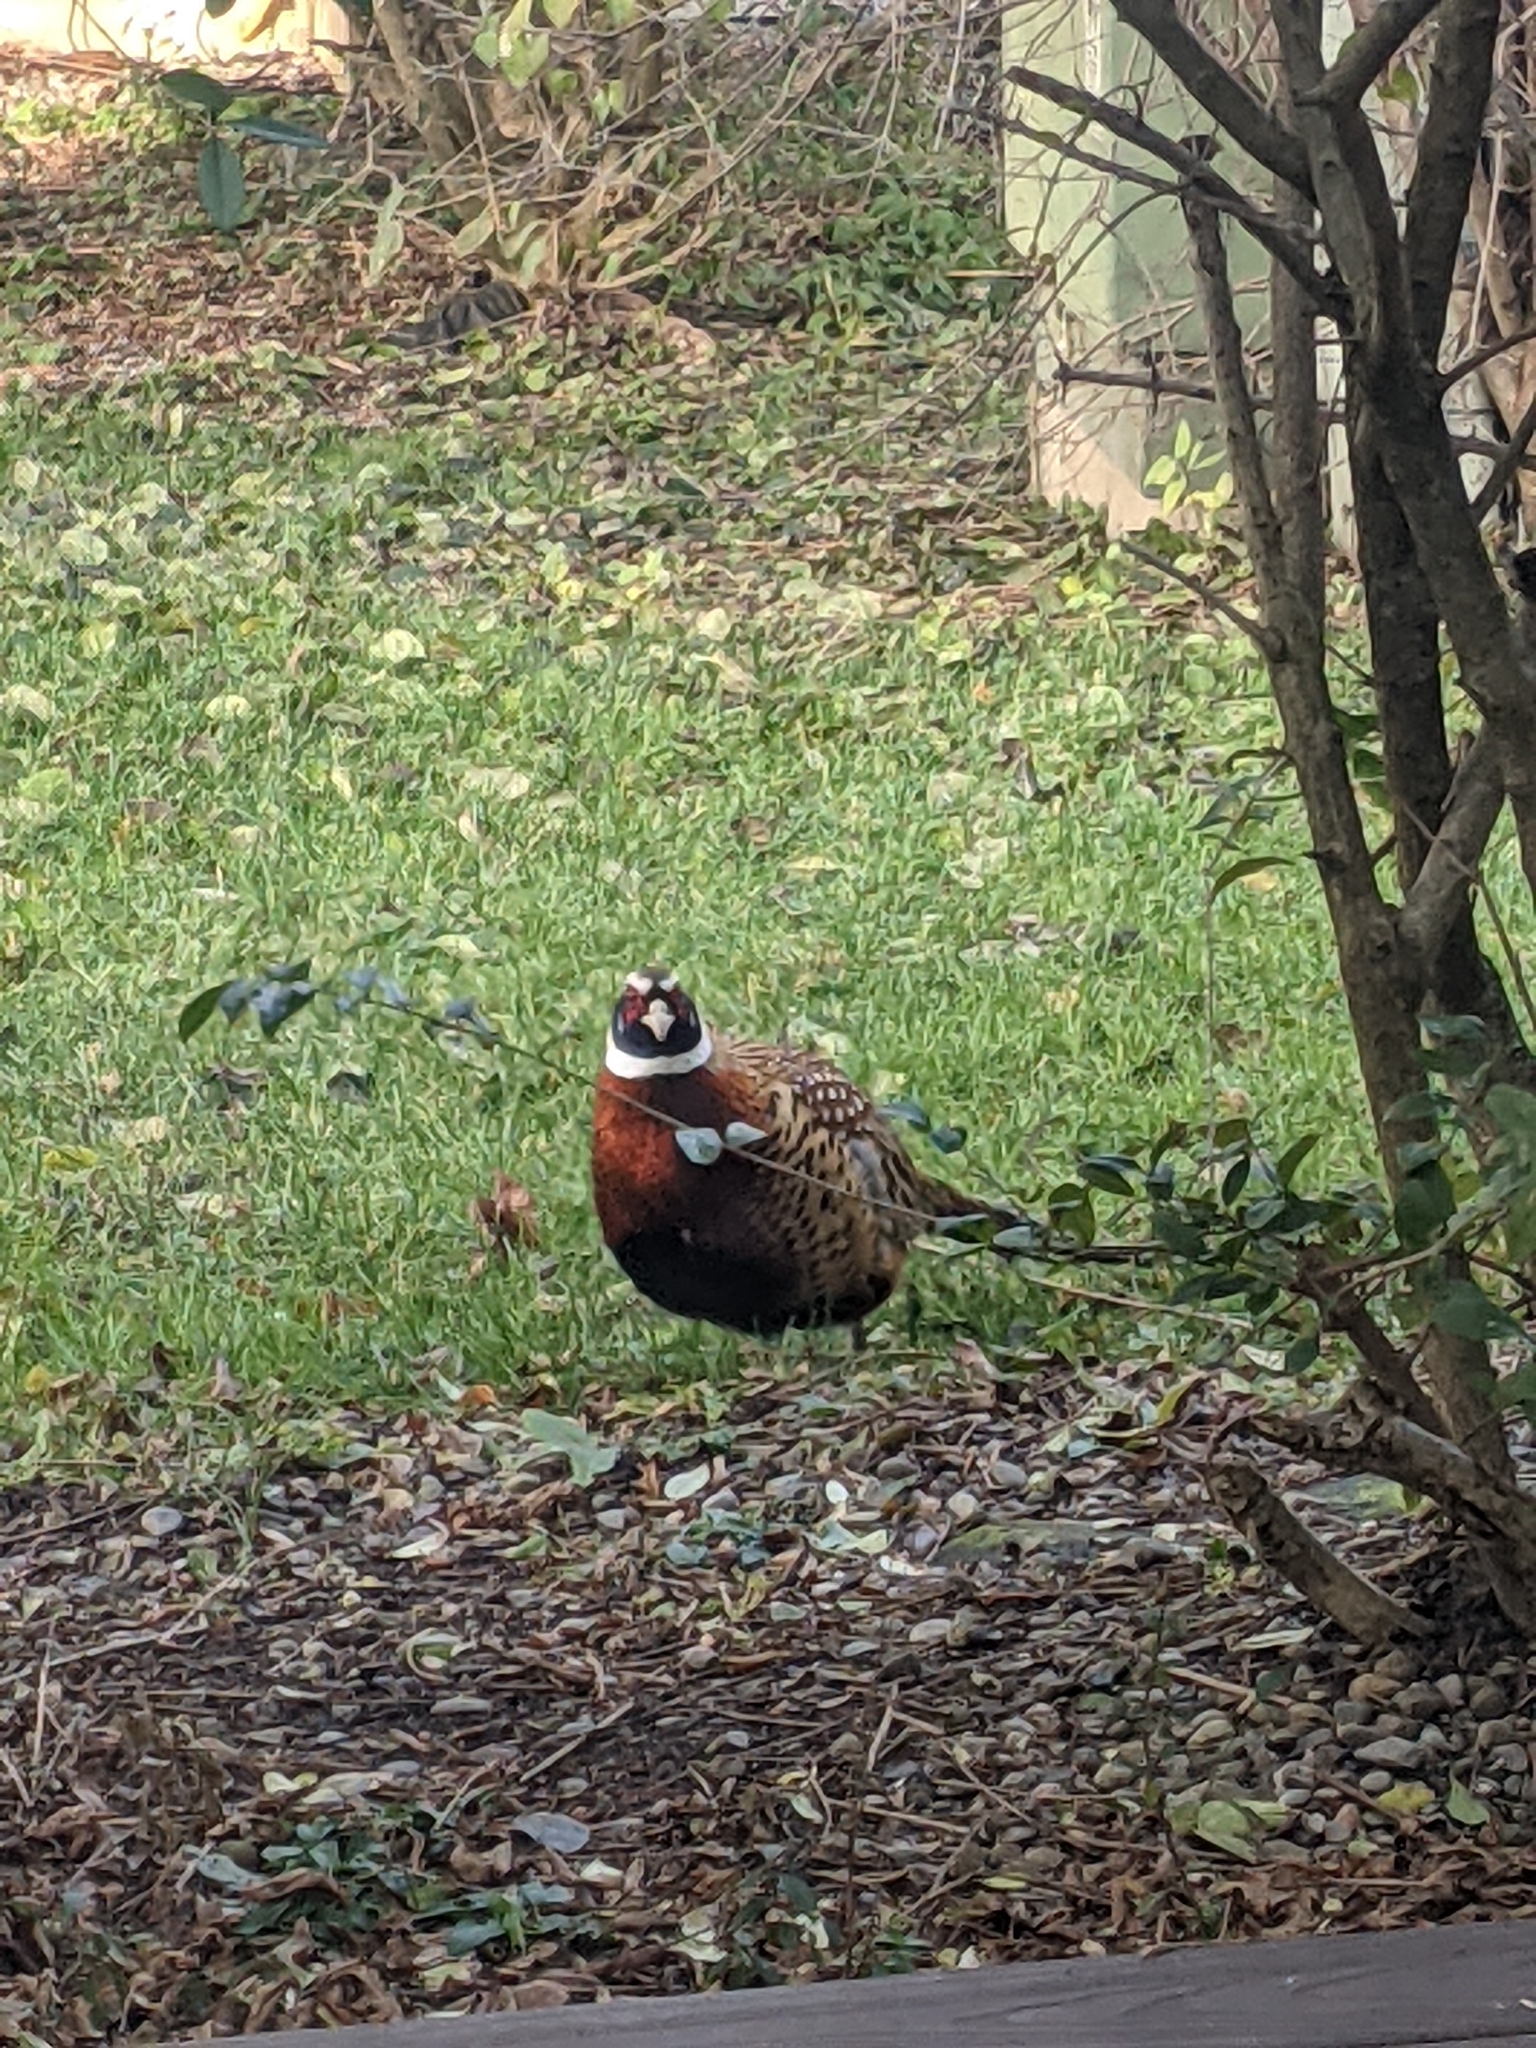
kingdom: Animalia
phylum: Chordata
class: Aves
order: Galliformes
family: Phasianidae
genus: Phasianus
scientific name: Phasianus colchicus
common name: Common pheasant
